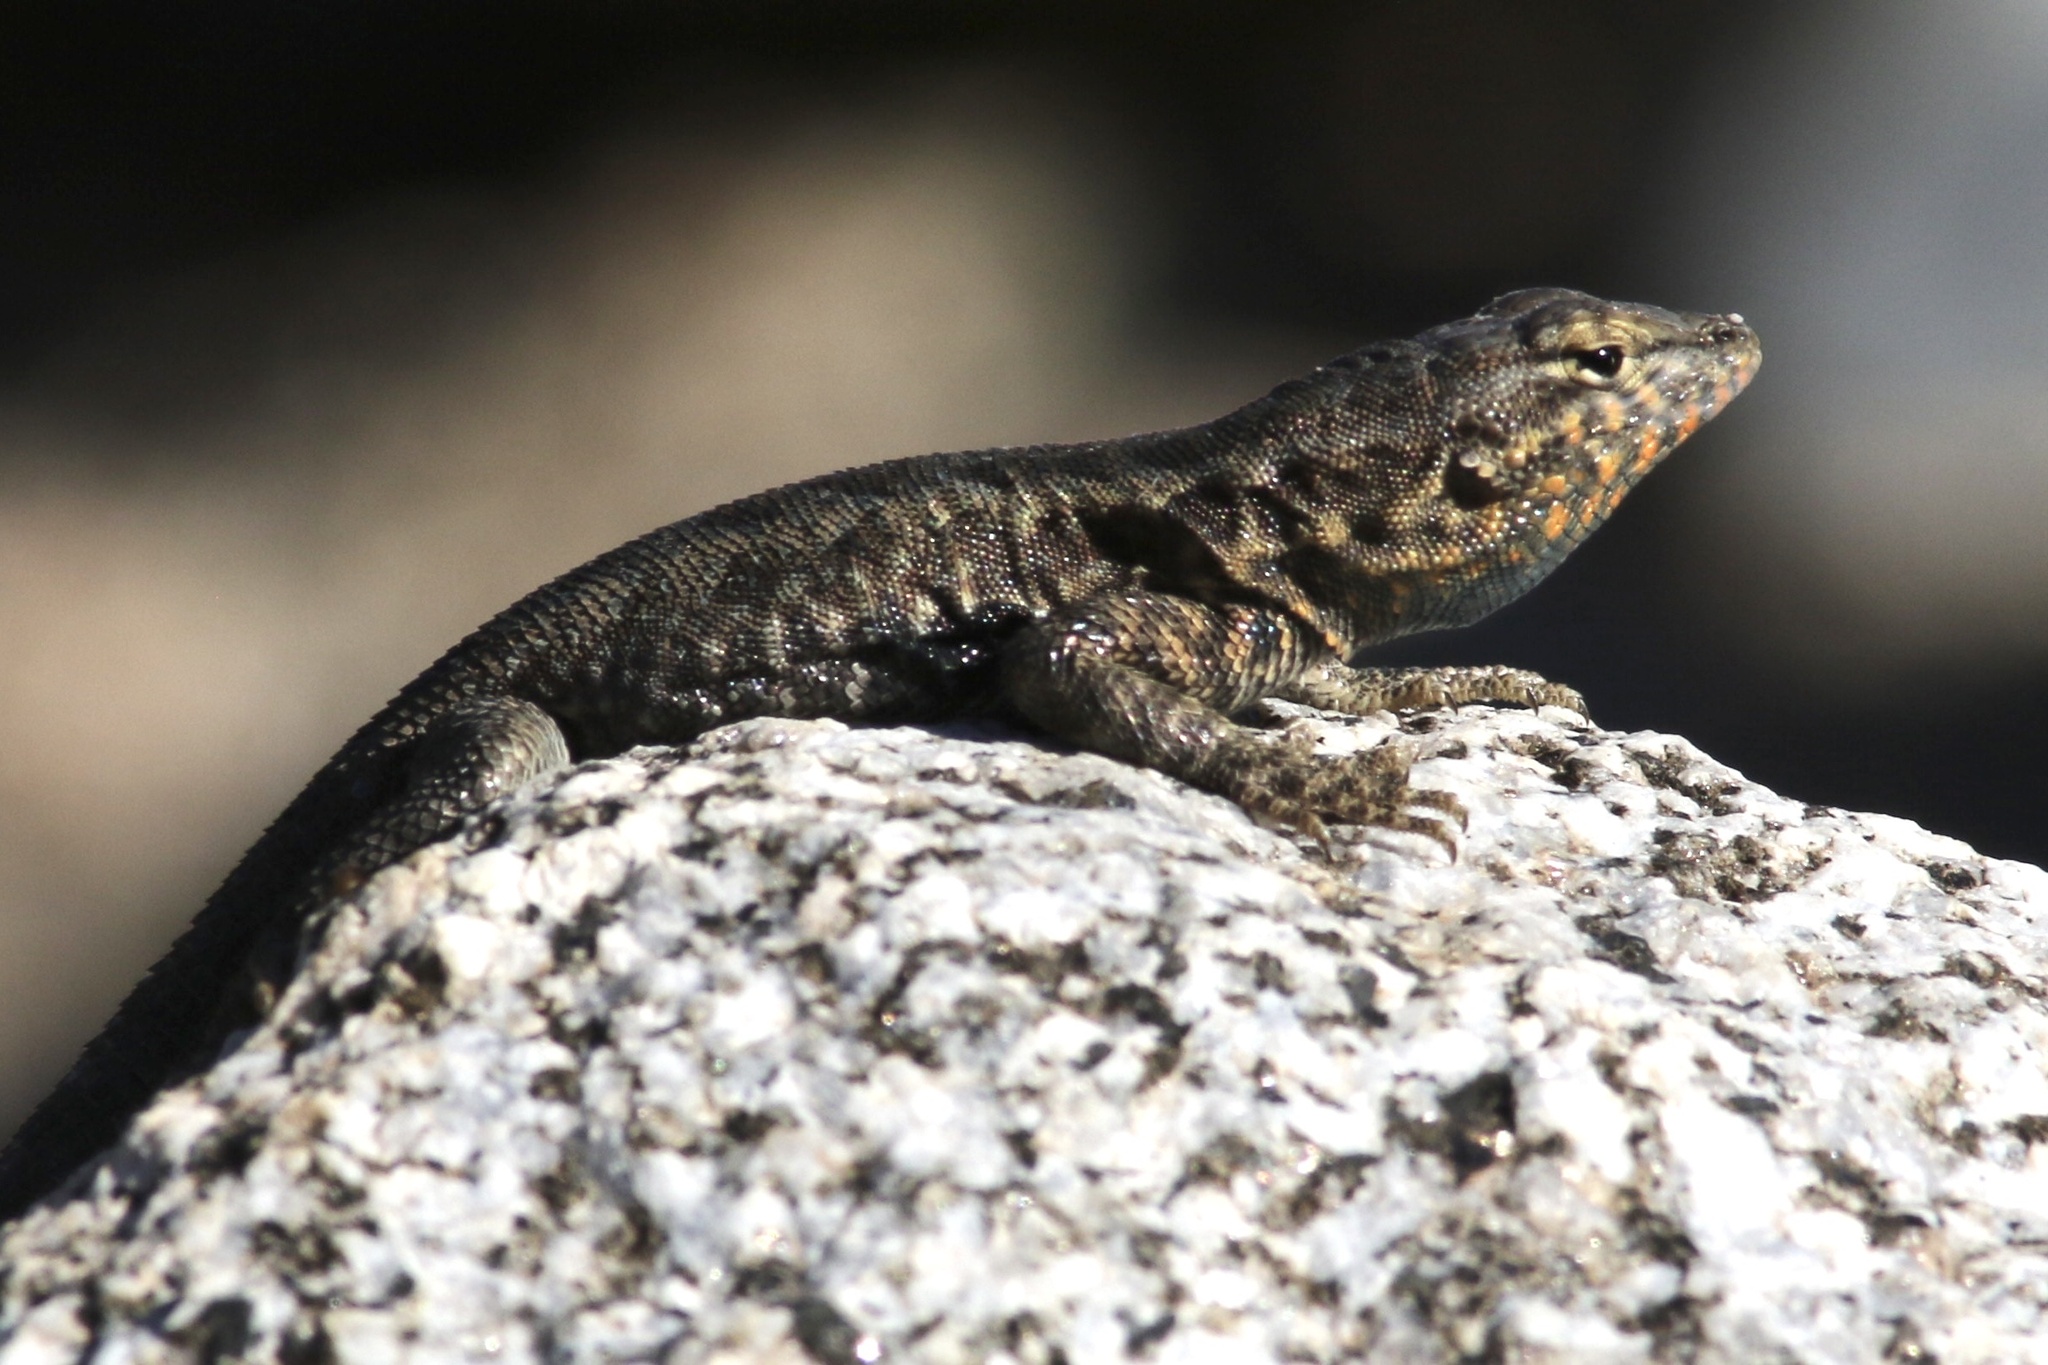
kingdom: Animalia
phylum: Chordata
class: Squamata
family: Phrynosomatidae
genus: Uta
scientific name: Uta stansburiana
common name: Side-blotched lizard
